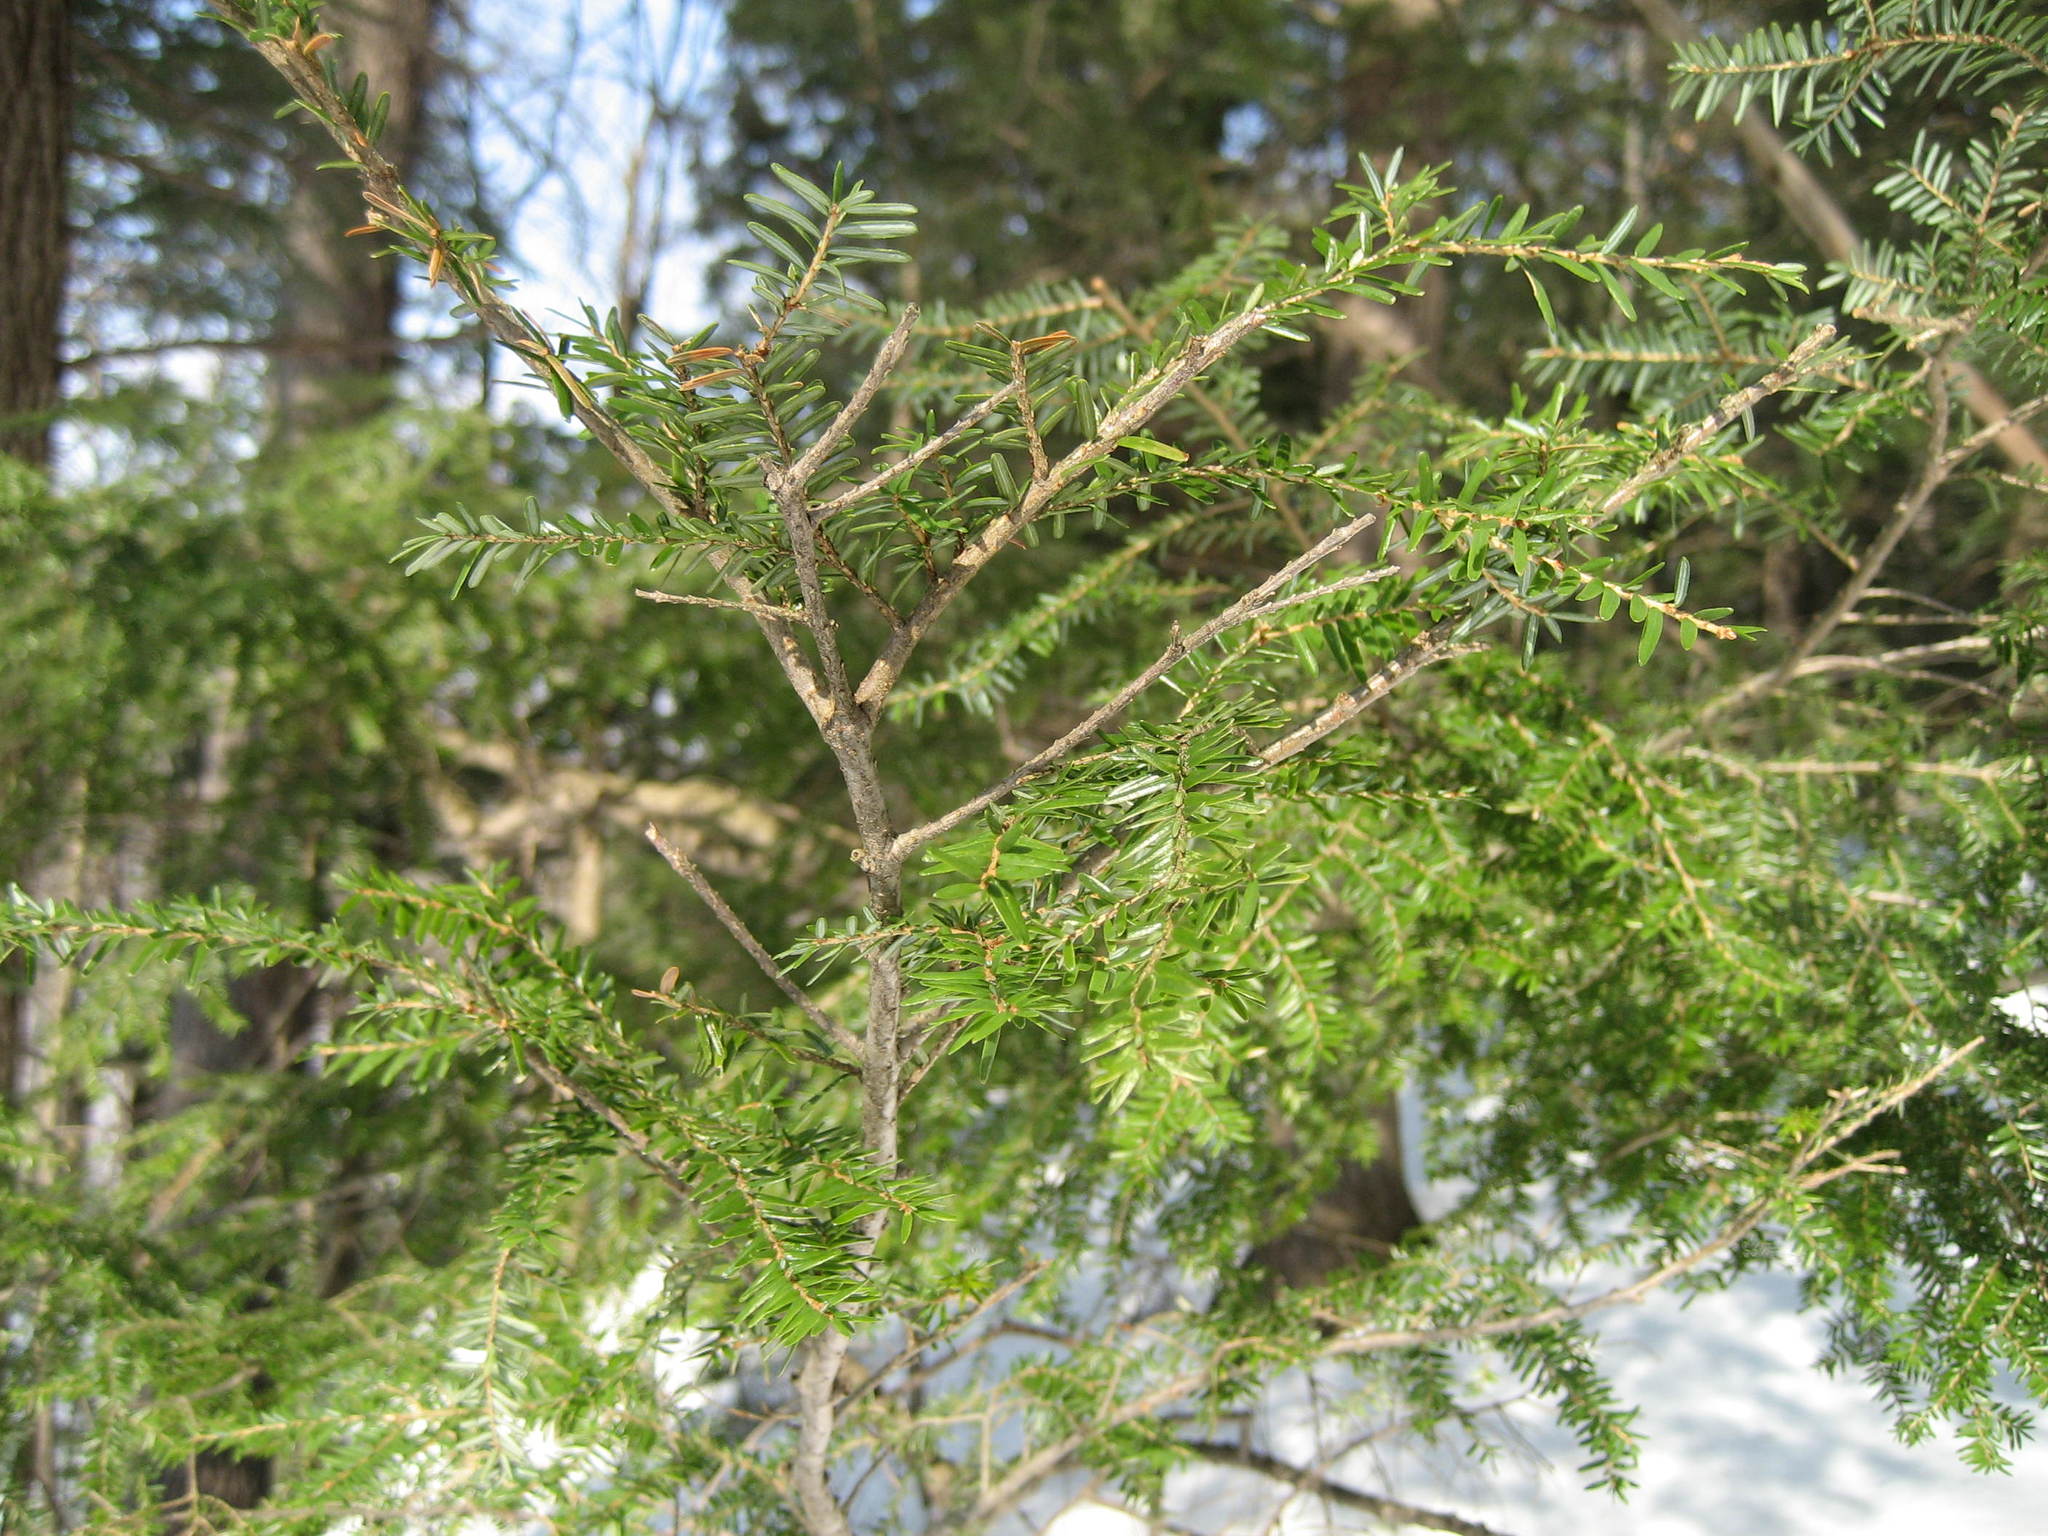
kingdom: Plantae
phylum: Tracheophyta
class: Pinopsida
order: Pinales
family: Pinaceae
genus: Tsuga
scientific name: Tsuga canadensis
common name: Eastern hemlock
